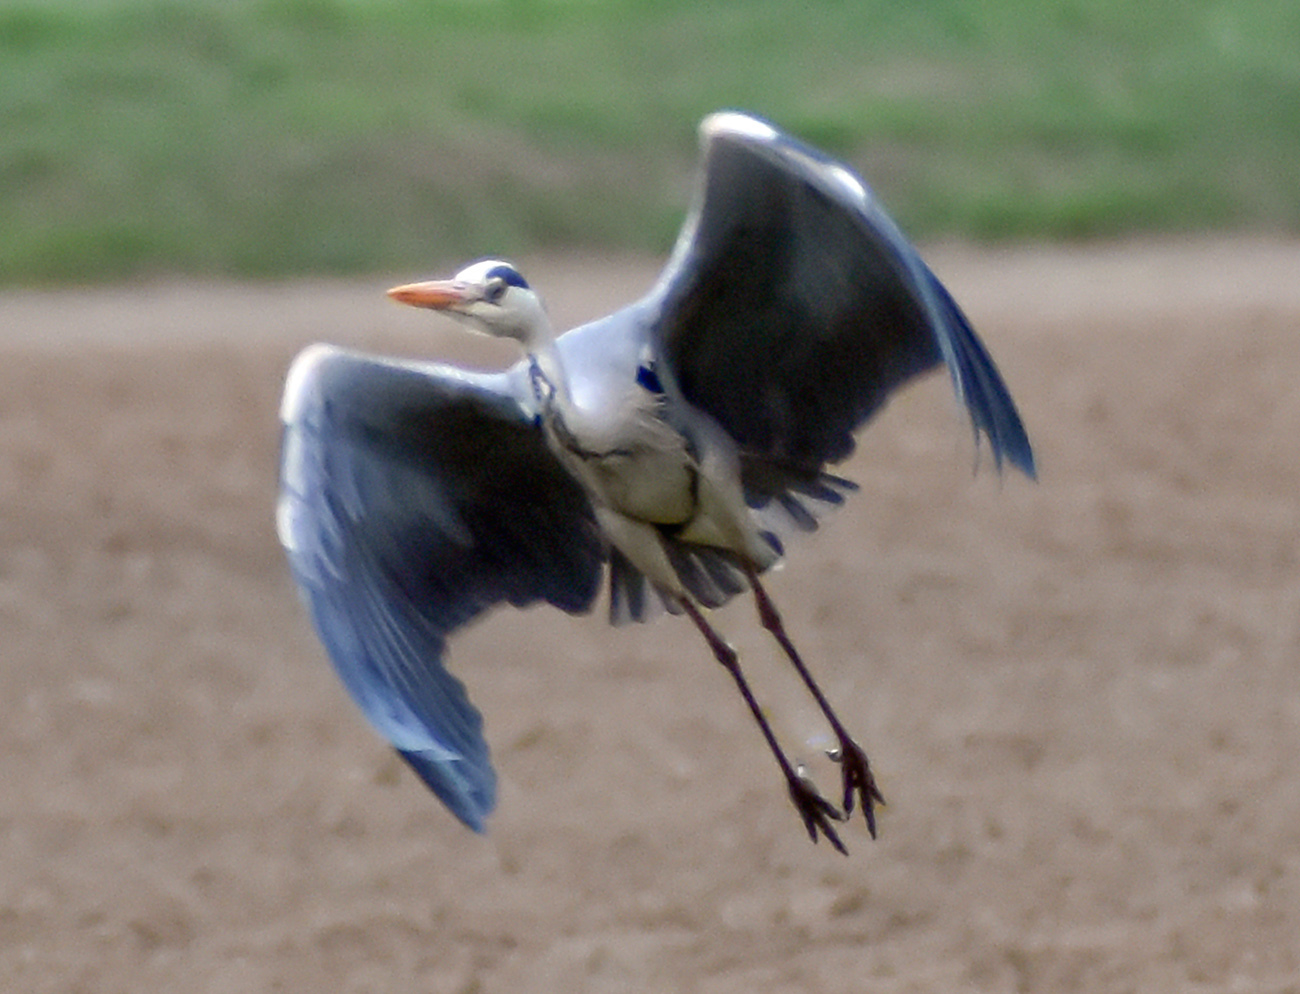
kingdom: Animalia
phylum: Chordata
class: Aves
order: Pelecaniformes
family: Ardeidae
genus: Ardea
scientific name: Ardea cinerea
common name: Grey heron
